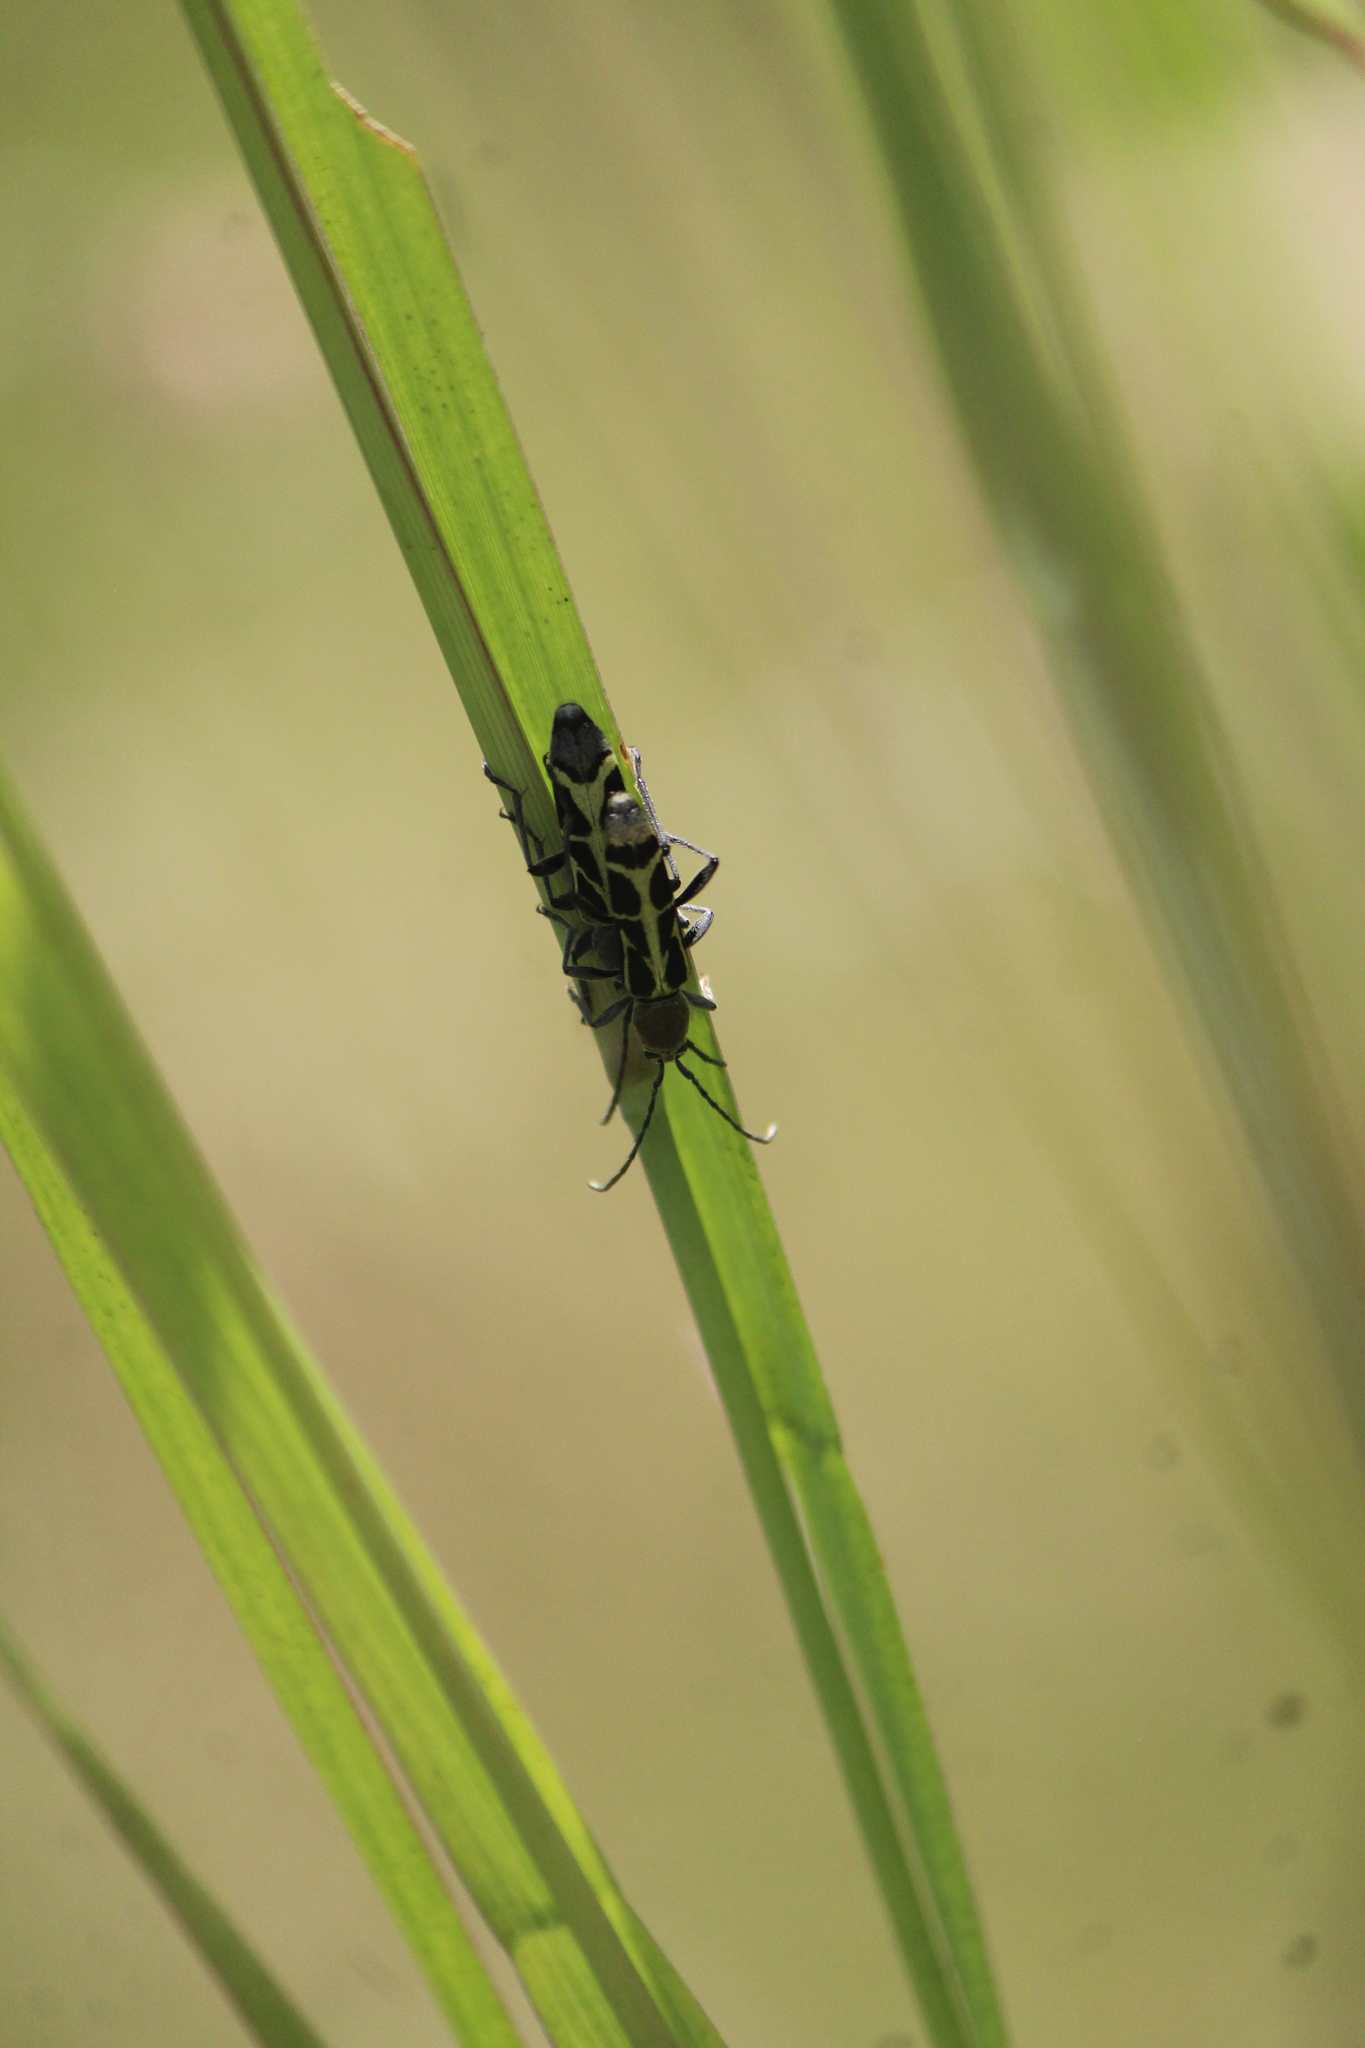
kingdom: Animalia
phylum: Arthropoda
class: Insecta
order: Coleoptera
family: Cerambycidae
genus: Tanyochraethes
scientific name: Tanyochraethes clathratus
